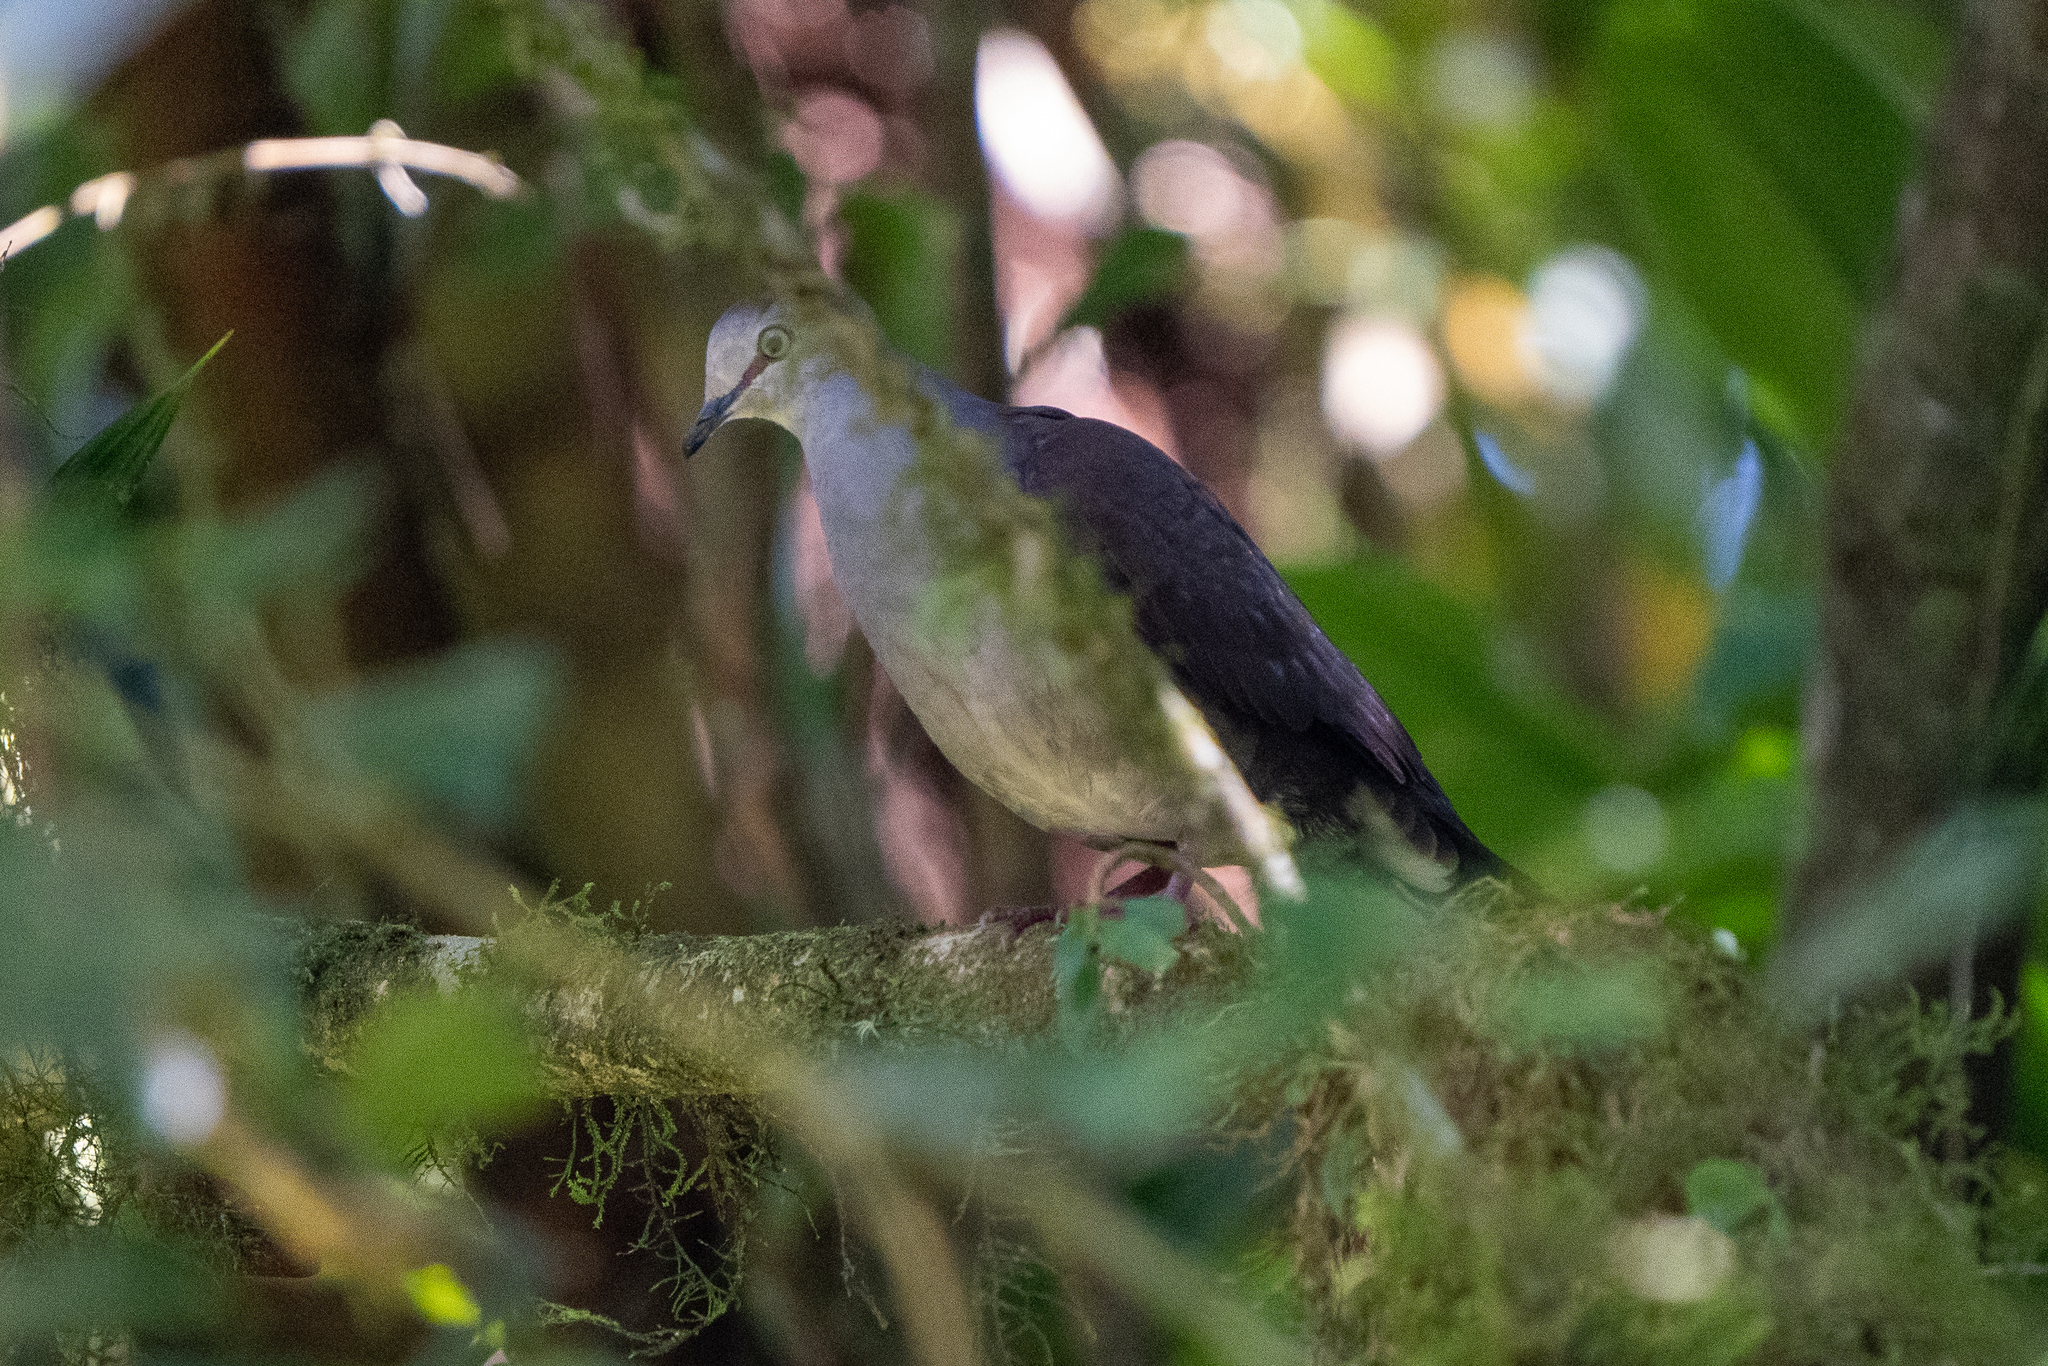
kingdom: Animalia
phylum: Chordata
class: Aves
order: Columbiformes
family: Columbidae
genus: Leptotila
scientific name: Leptotila cassinii
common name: Grey-chested dove
